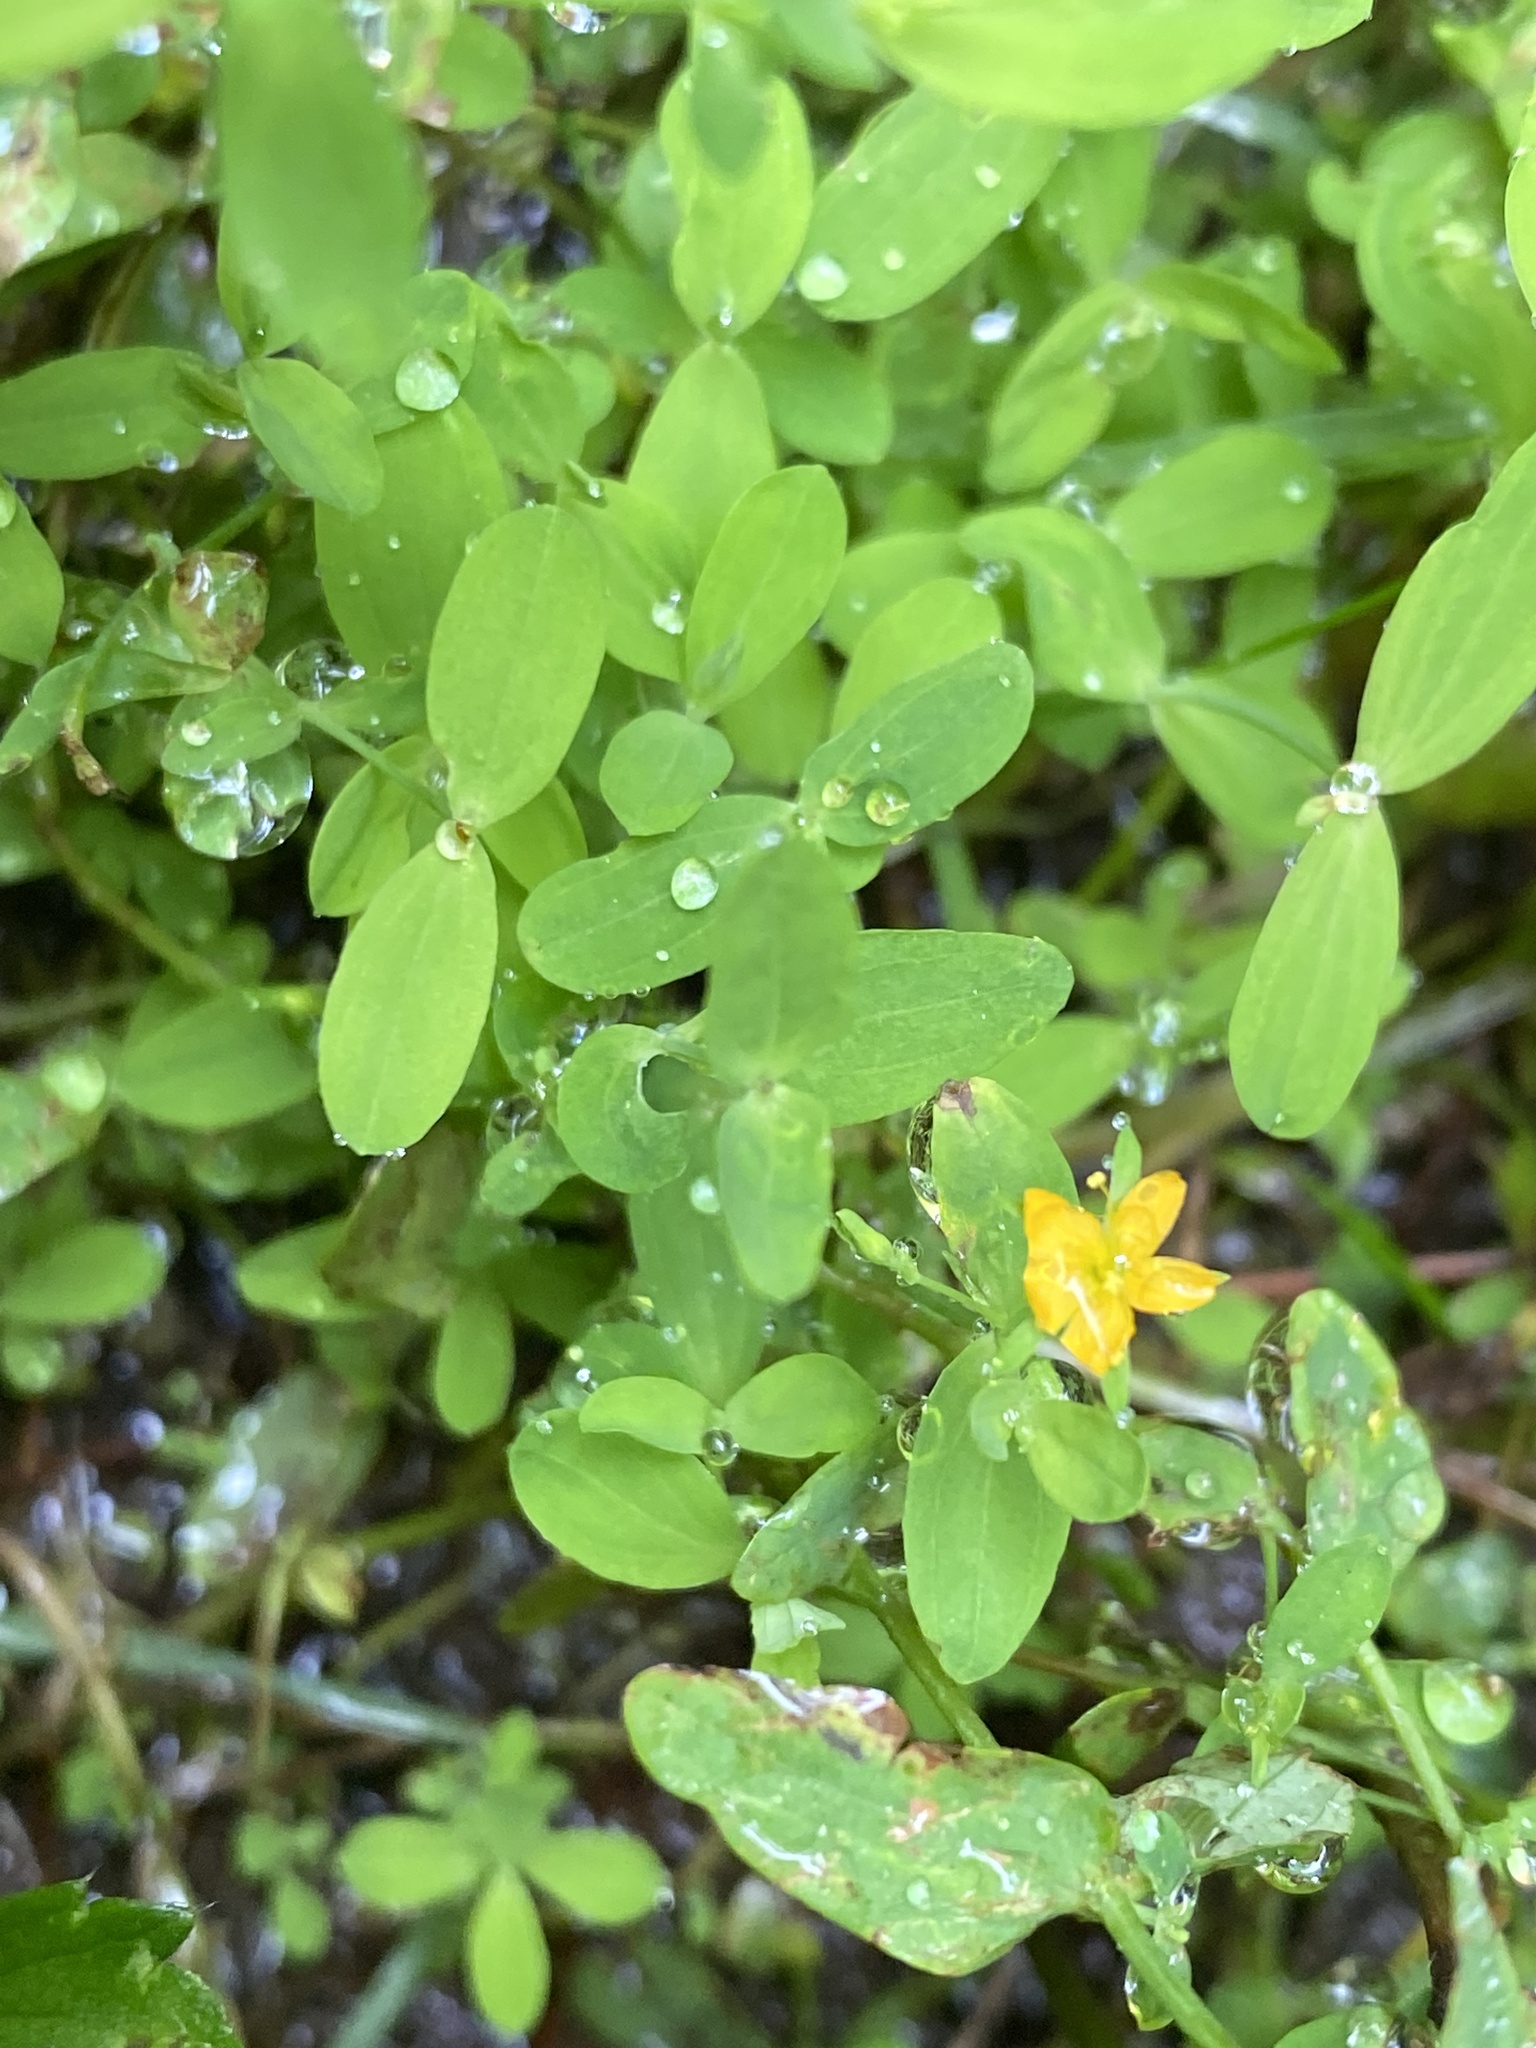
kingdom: Plantae
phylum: Tracheophyta
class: Magnoliopsida
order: Malpighiales
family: Hypericaceae
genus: Hypericum
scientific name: Hypericum mutilum
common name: Dwarf st. john's-wort
